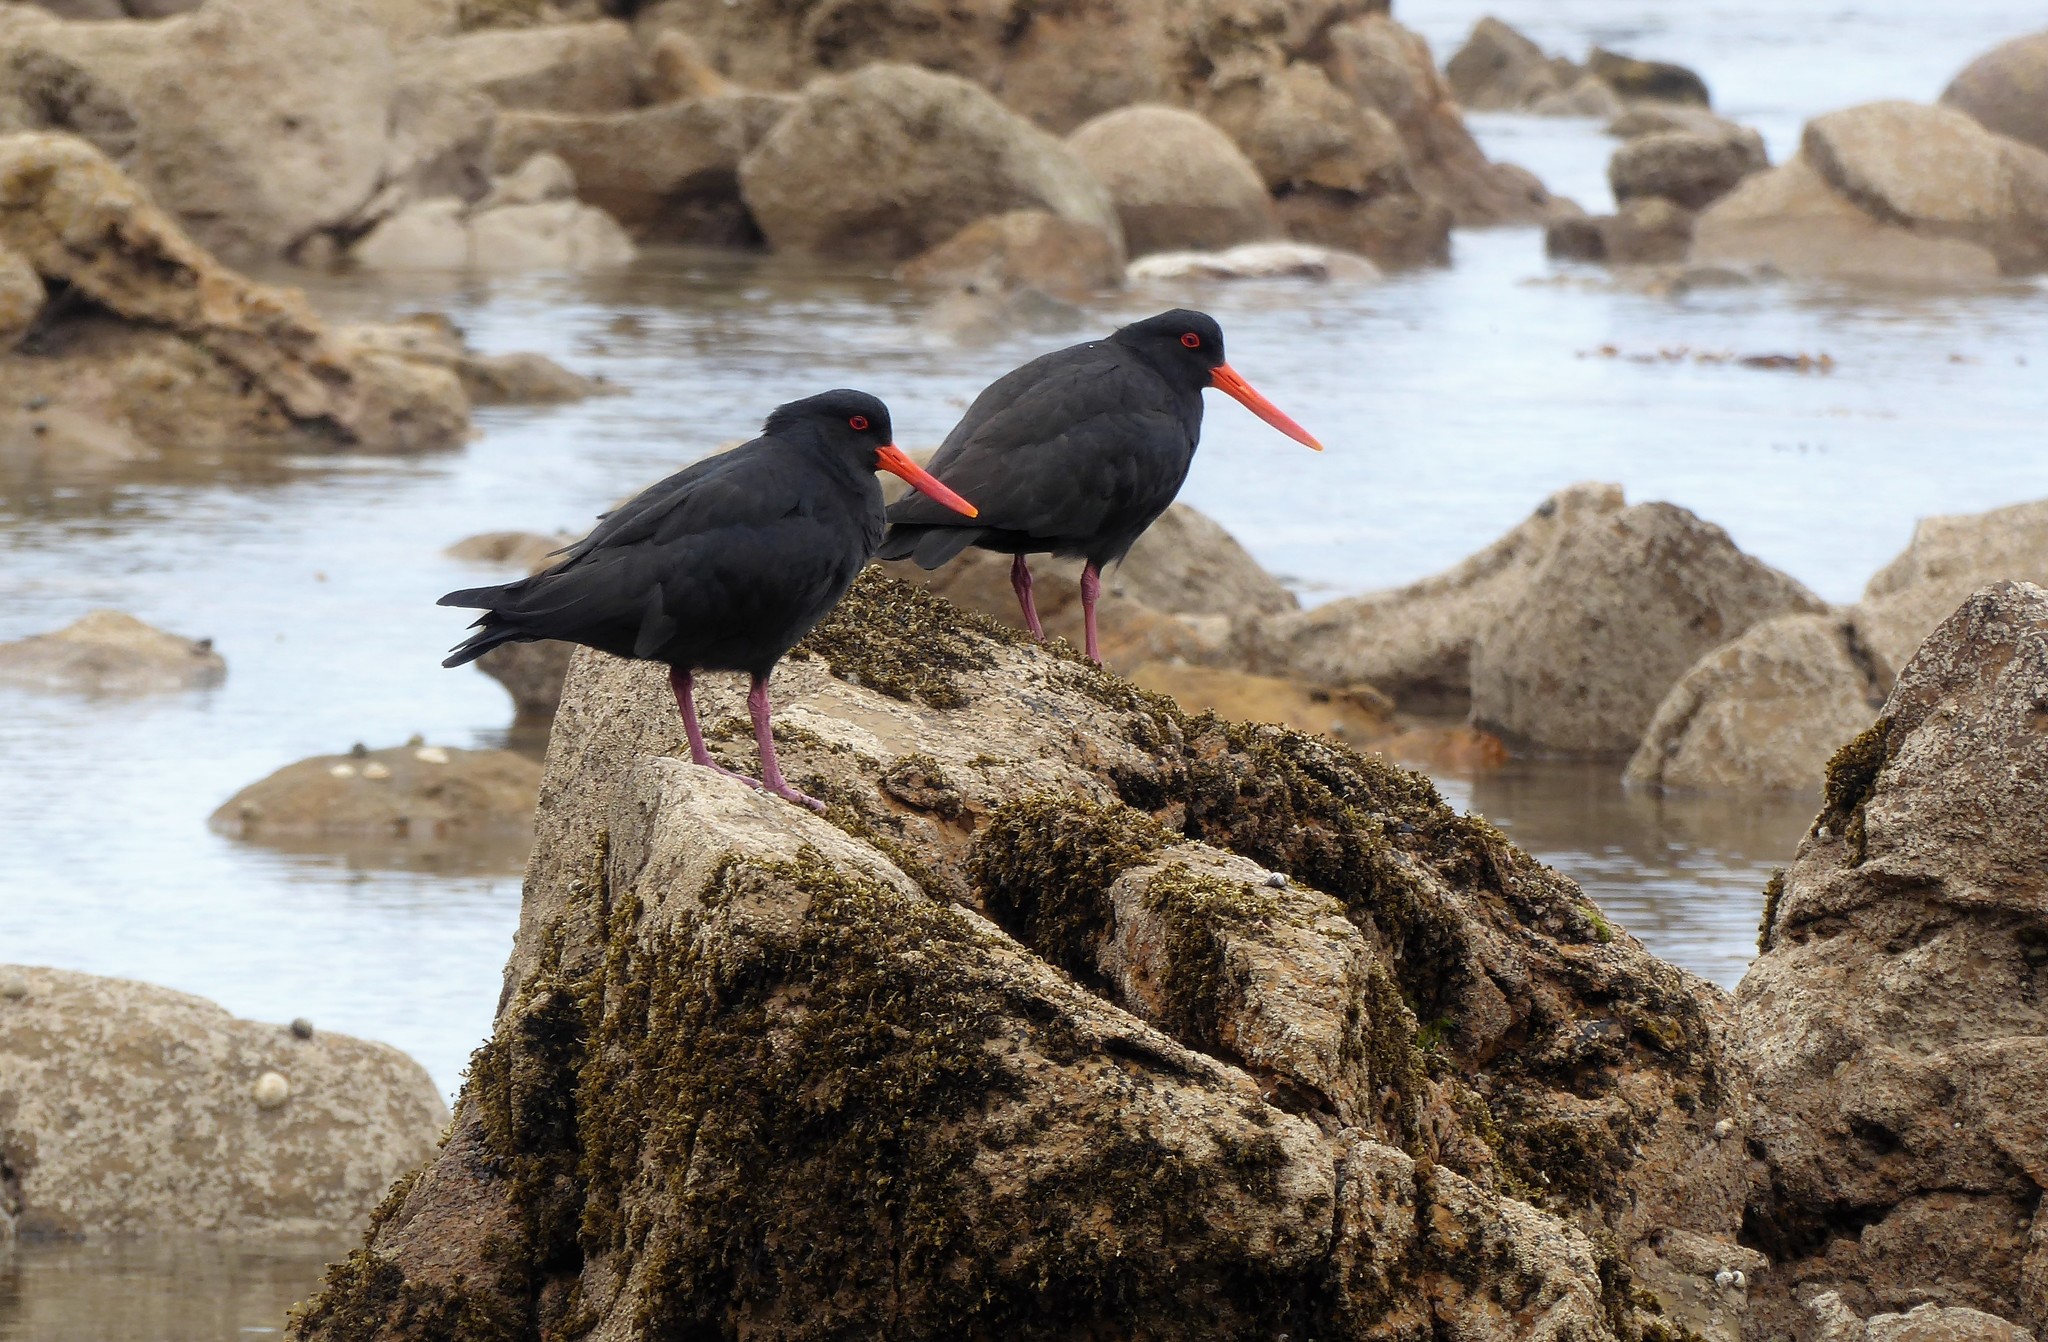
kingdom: Animalia
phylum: Chordata
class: Aves
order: Charadriiformes
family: Haematopodidae
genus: Haematopus
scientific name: Haematopus unicolor
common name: Variable oystercatcher
